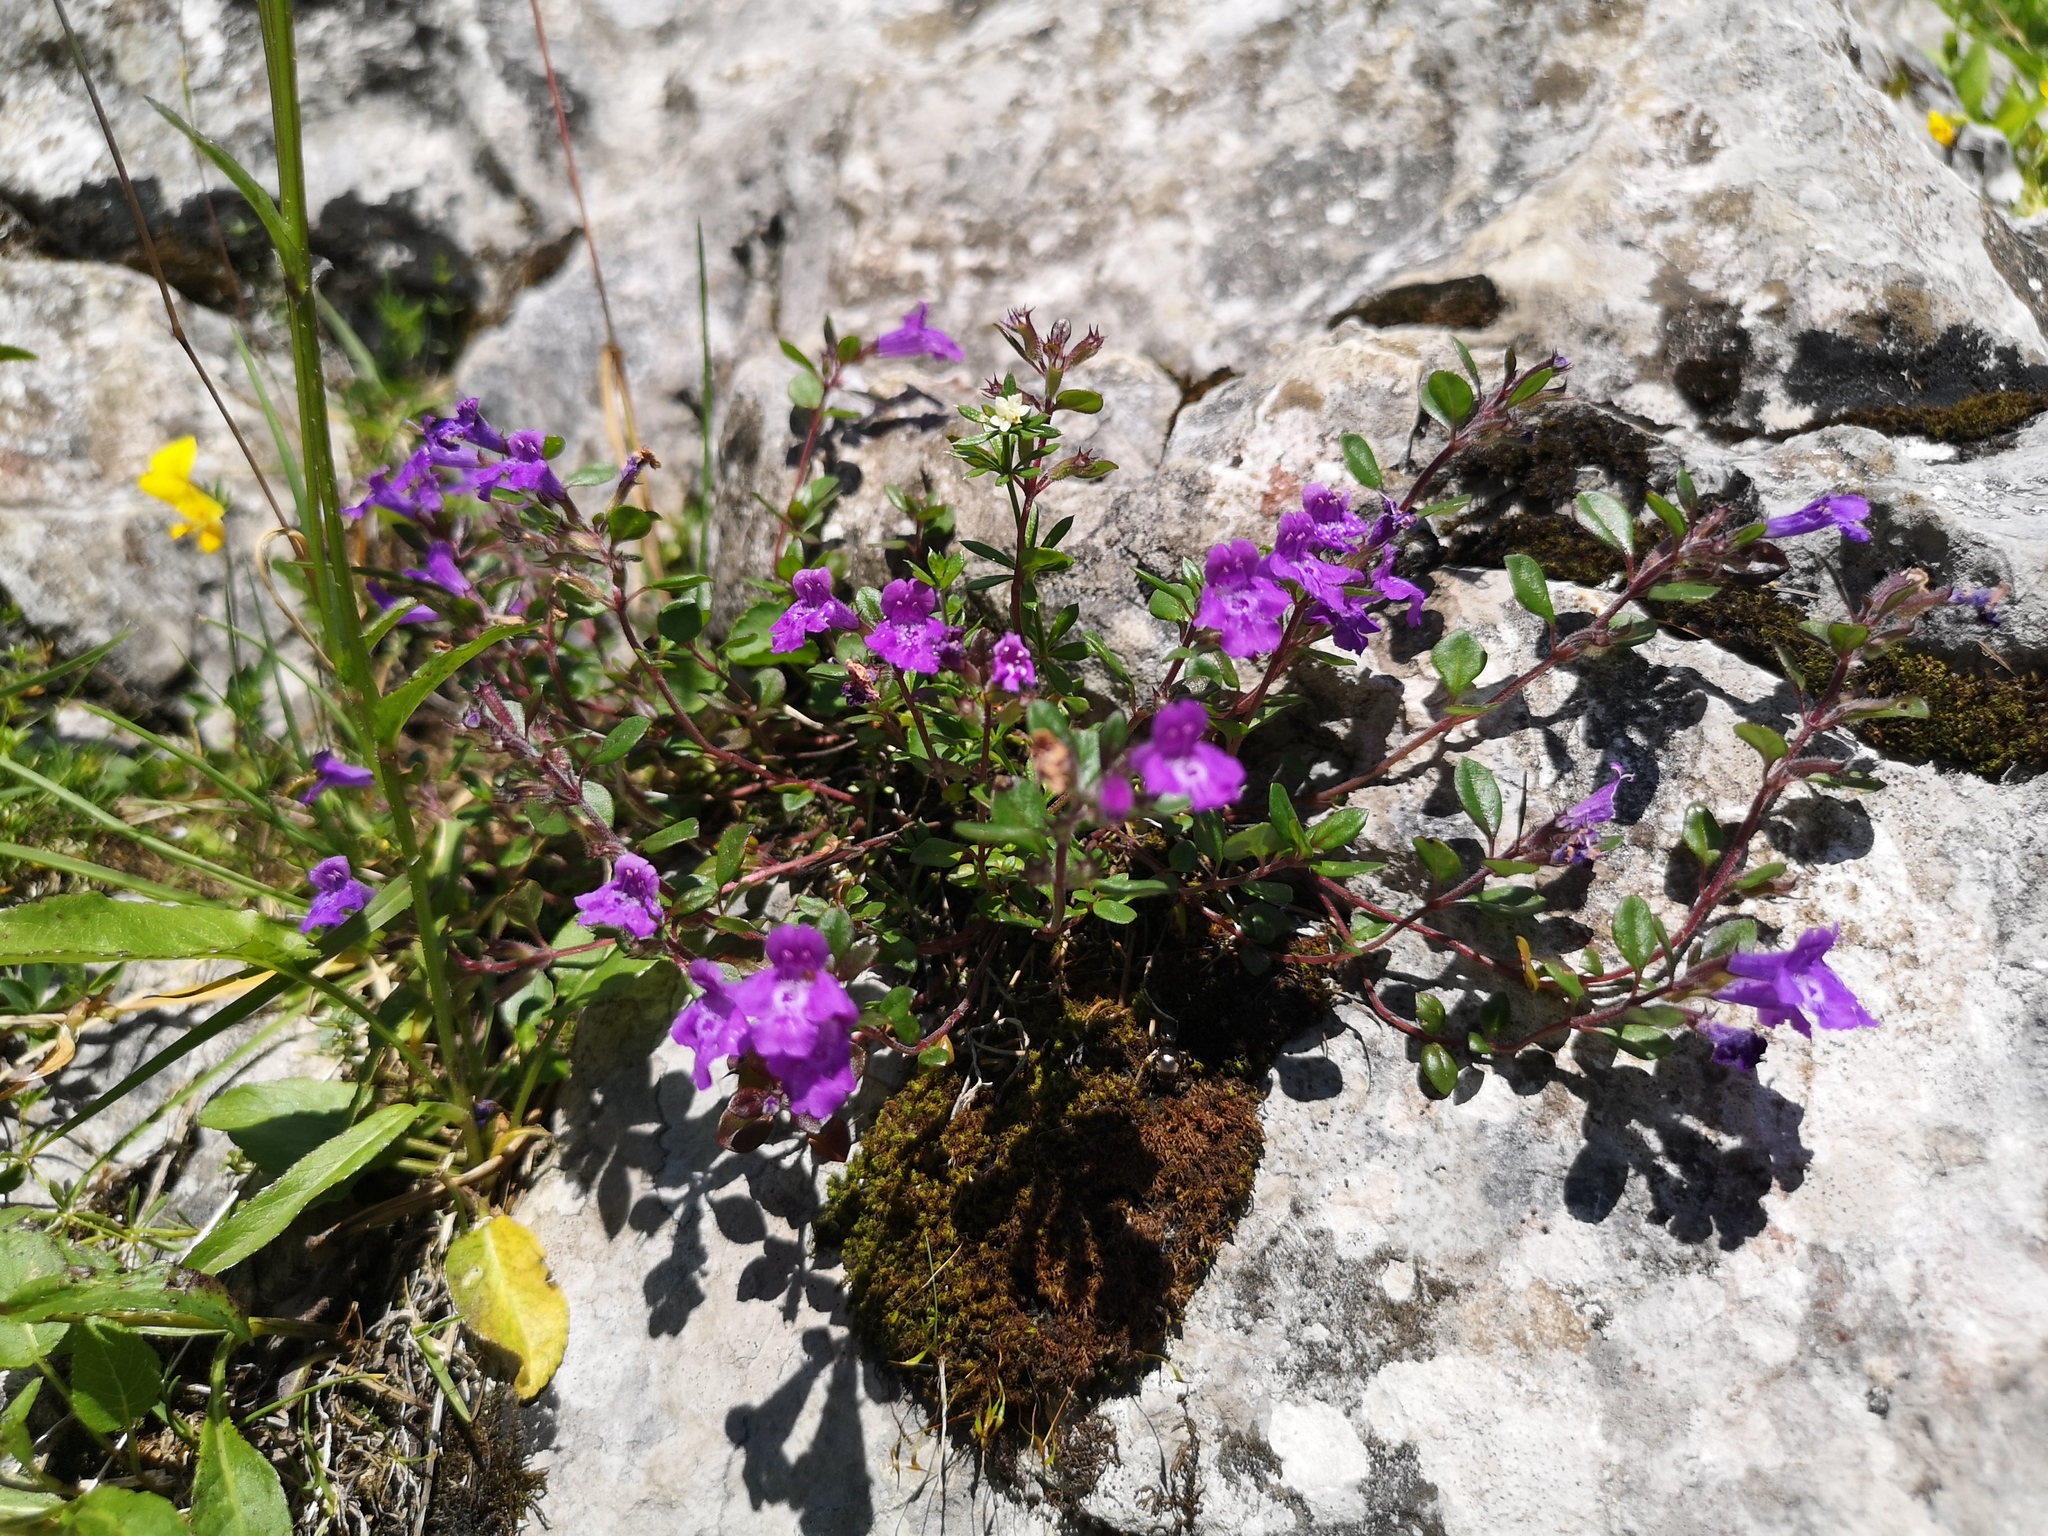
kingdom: Plantae
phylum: Tracheophyta
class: Magnoliopsida
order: Lamiales
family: Lamiaceae
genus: Clinopodium
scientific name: Clinopodium alpinum
